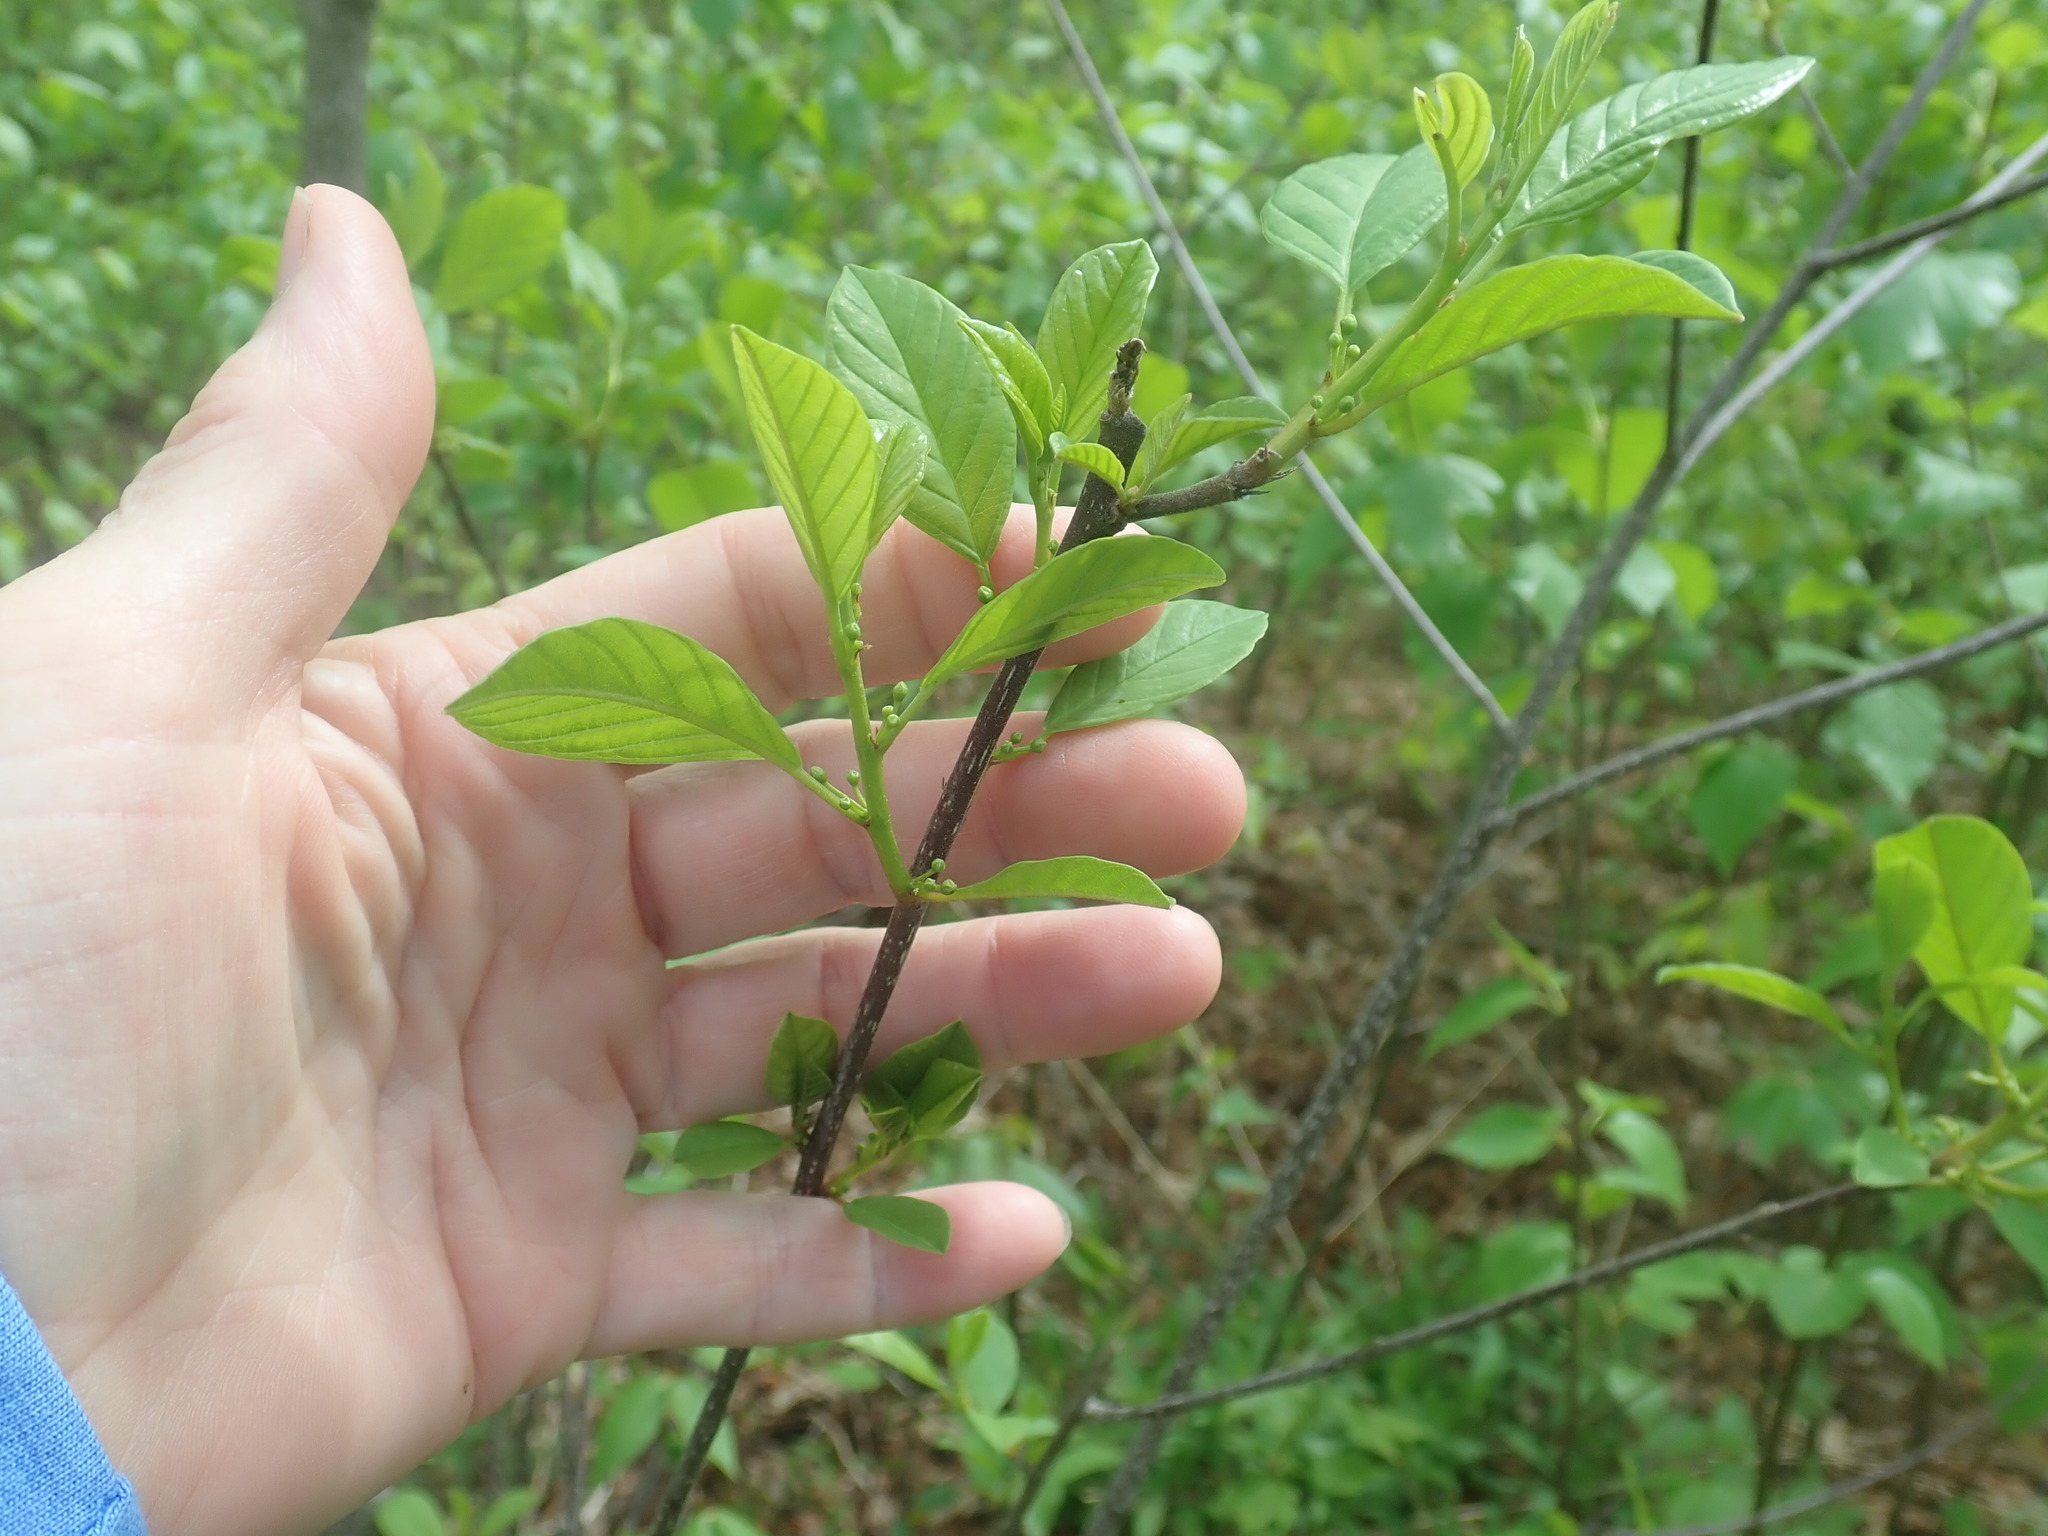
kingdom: Plantae
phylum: Tracheophyta
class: Magnoliopsida
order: Rosales
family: Rhamnaceae
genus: Frangula
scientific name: Frangula alnus
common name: Alder buckthorn
